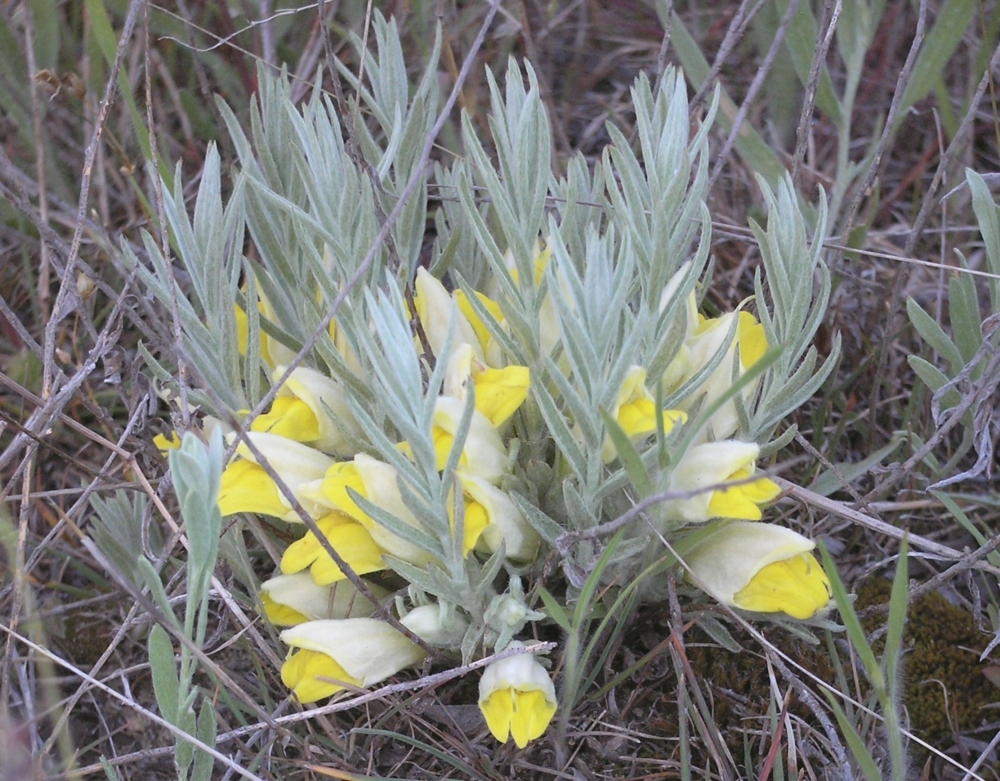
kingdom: Plantae
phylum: Tracheophyta
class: Magnoliopsida
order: Lamiales
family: Orobanchaceae
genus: Cymbaria
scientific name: Cymbaria borysthenica
